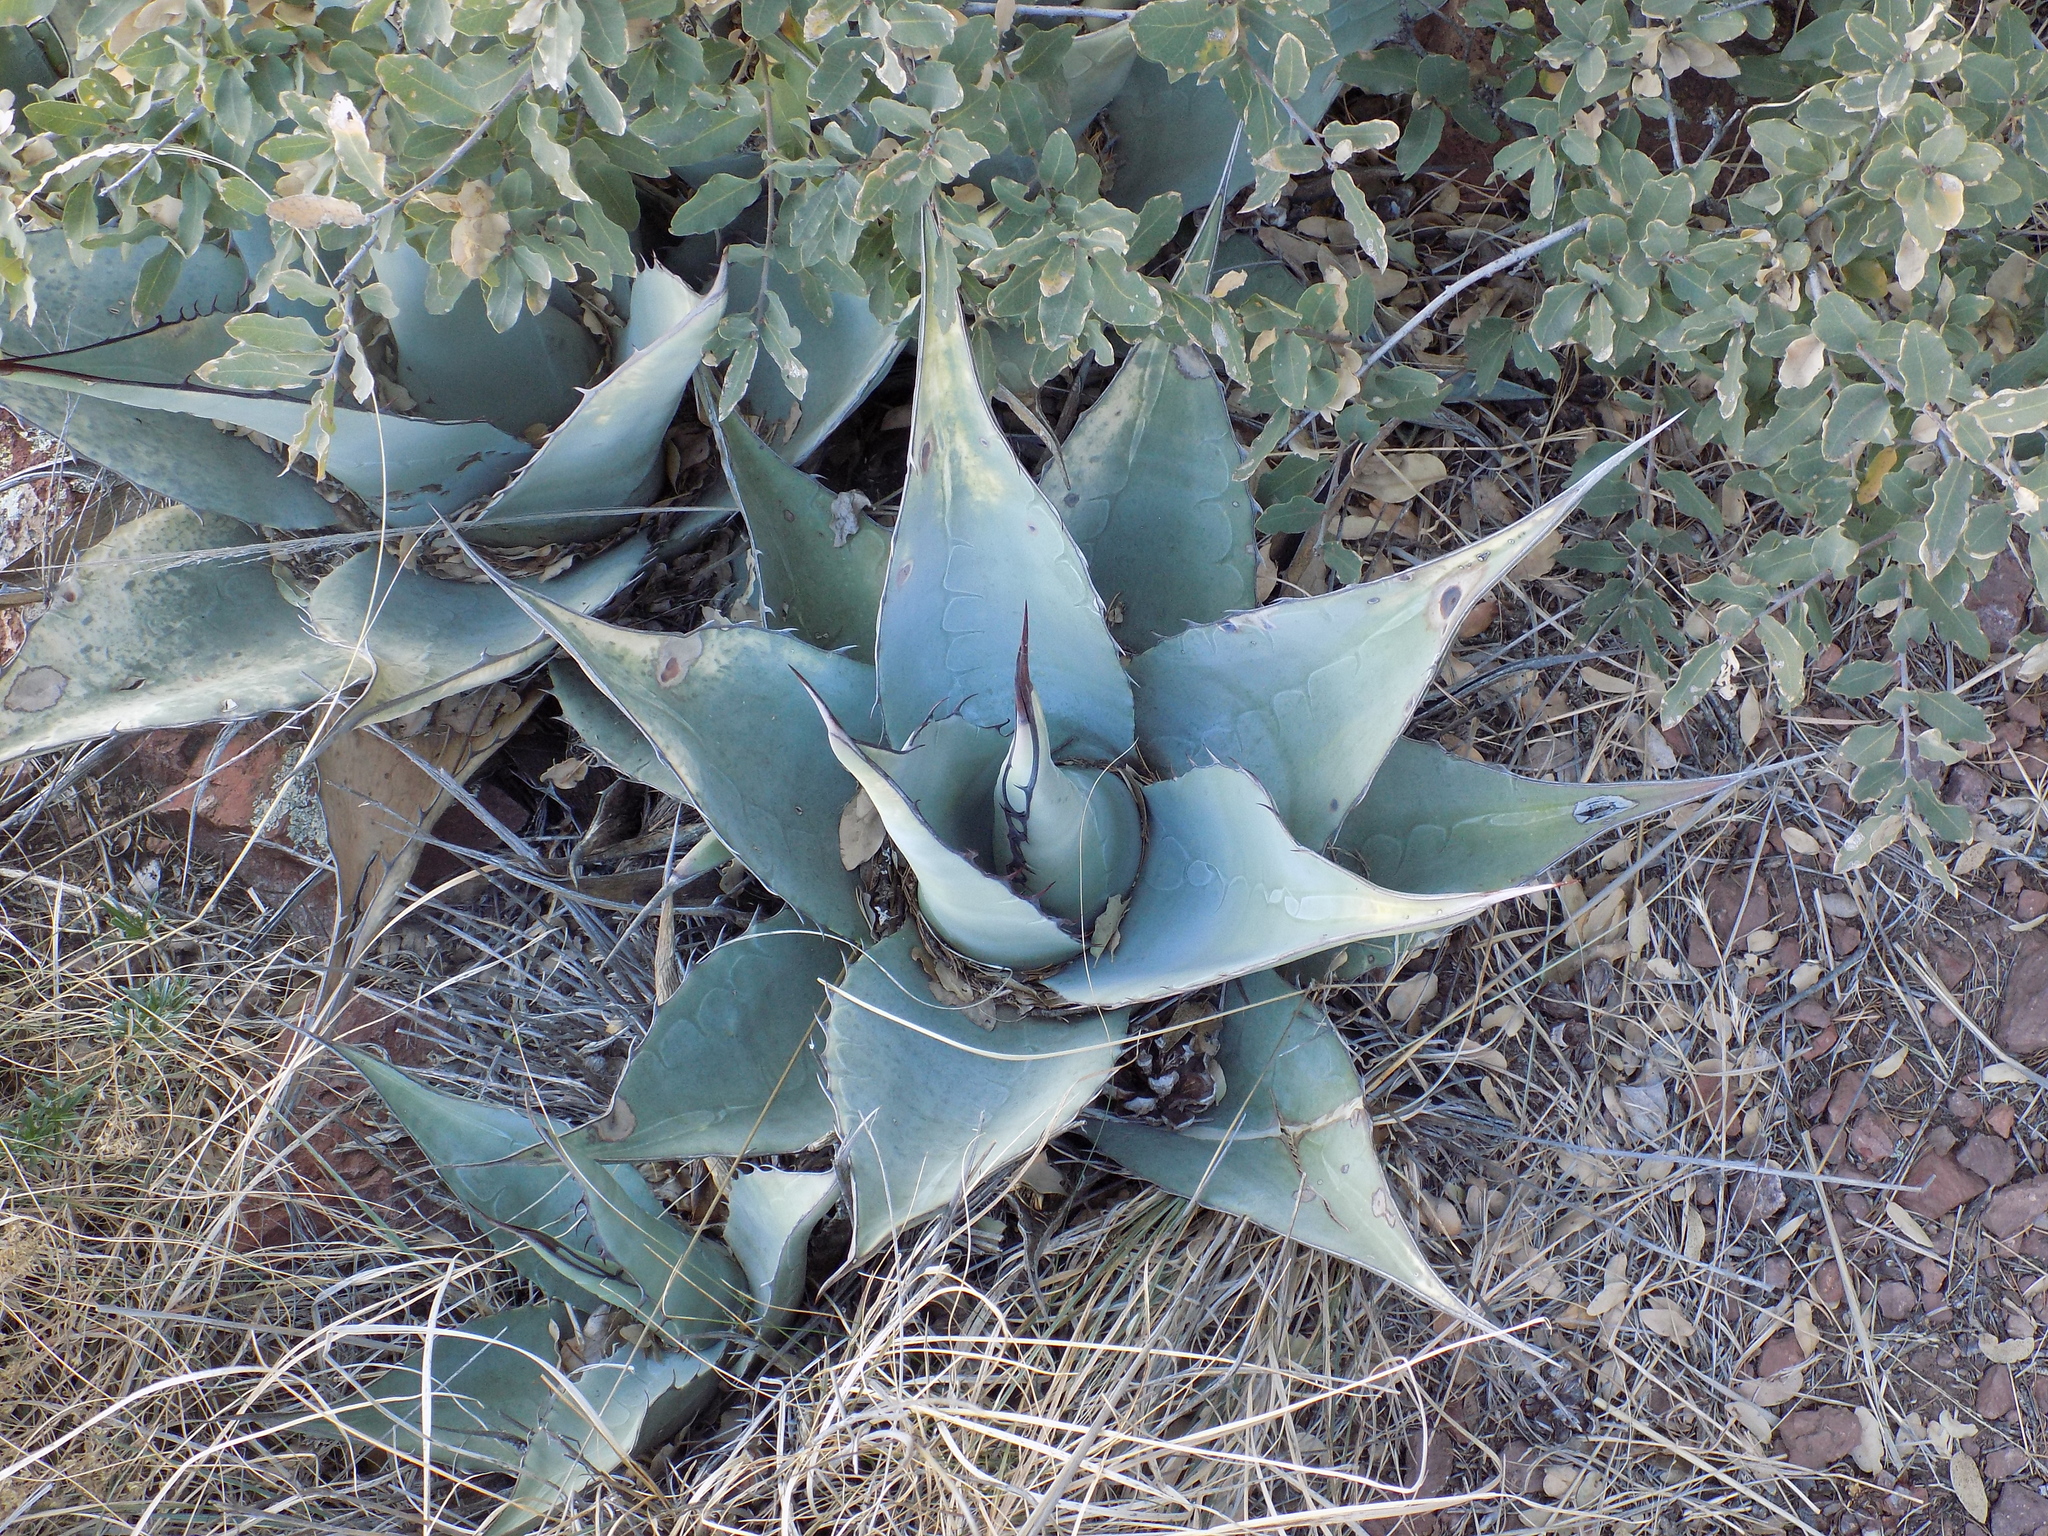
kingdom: Plantae
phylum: Tracheophyta
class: Liliopsida
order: Asparagales
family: Asparagaceae
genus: Agave
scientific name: Agave havardiana
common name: Havard agave
